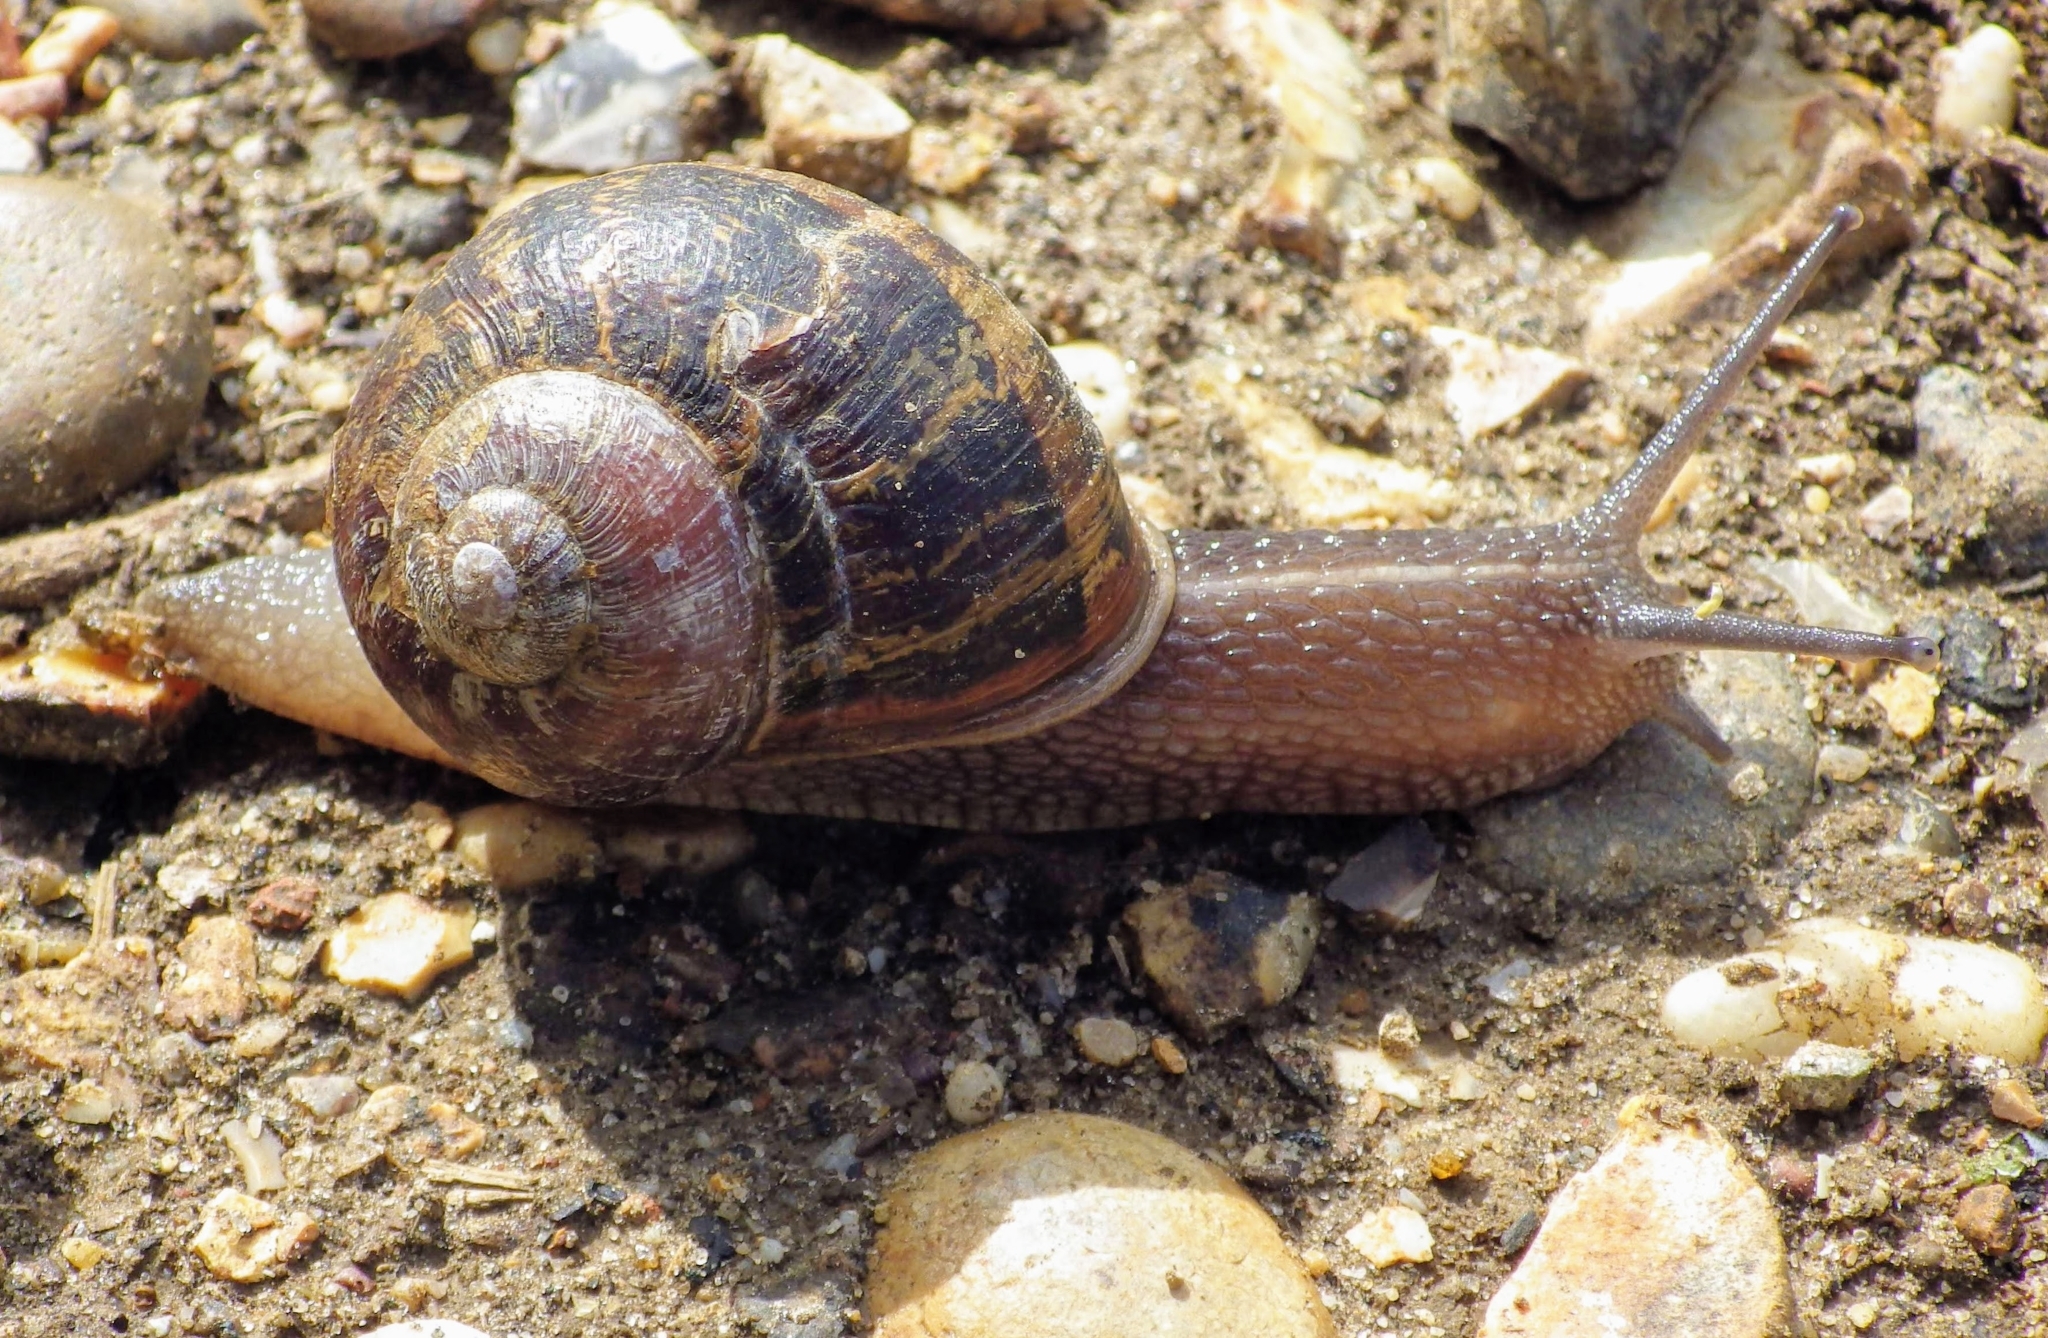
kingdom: Animalia
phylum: Mollusca
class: Gastropoda
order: Stylommatophora
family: Helicidae
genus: Cornu
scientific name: Cornu aspersum
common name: Brown garden snail
